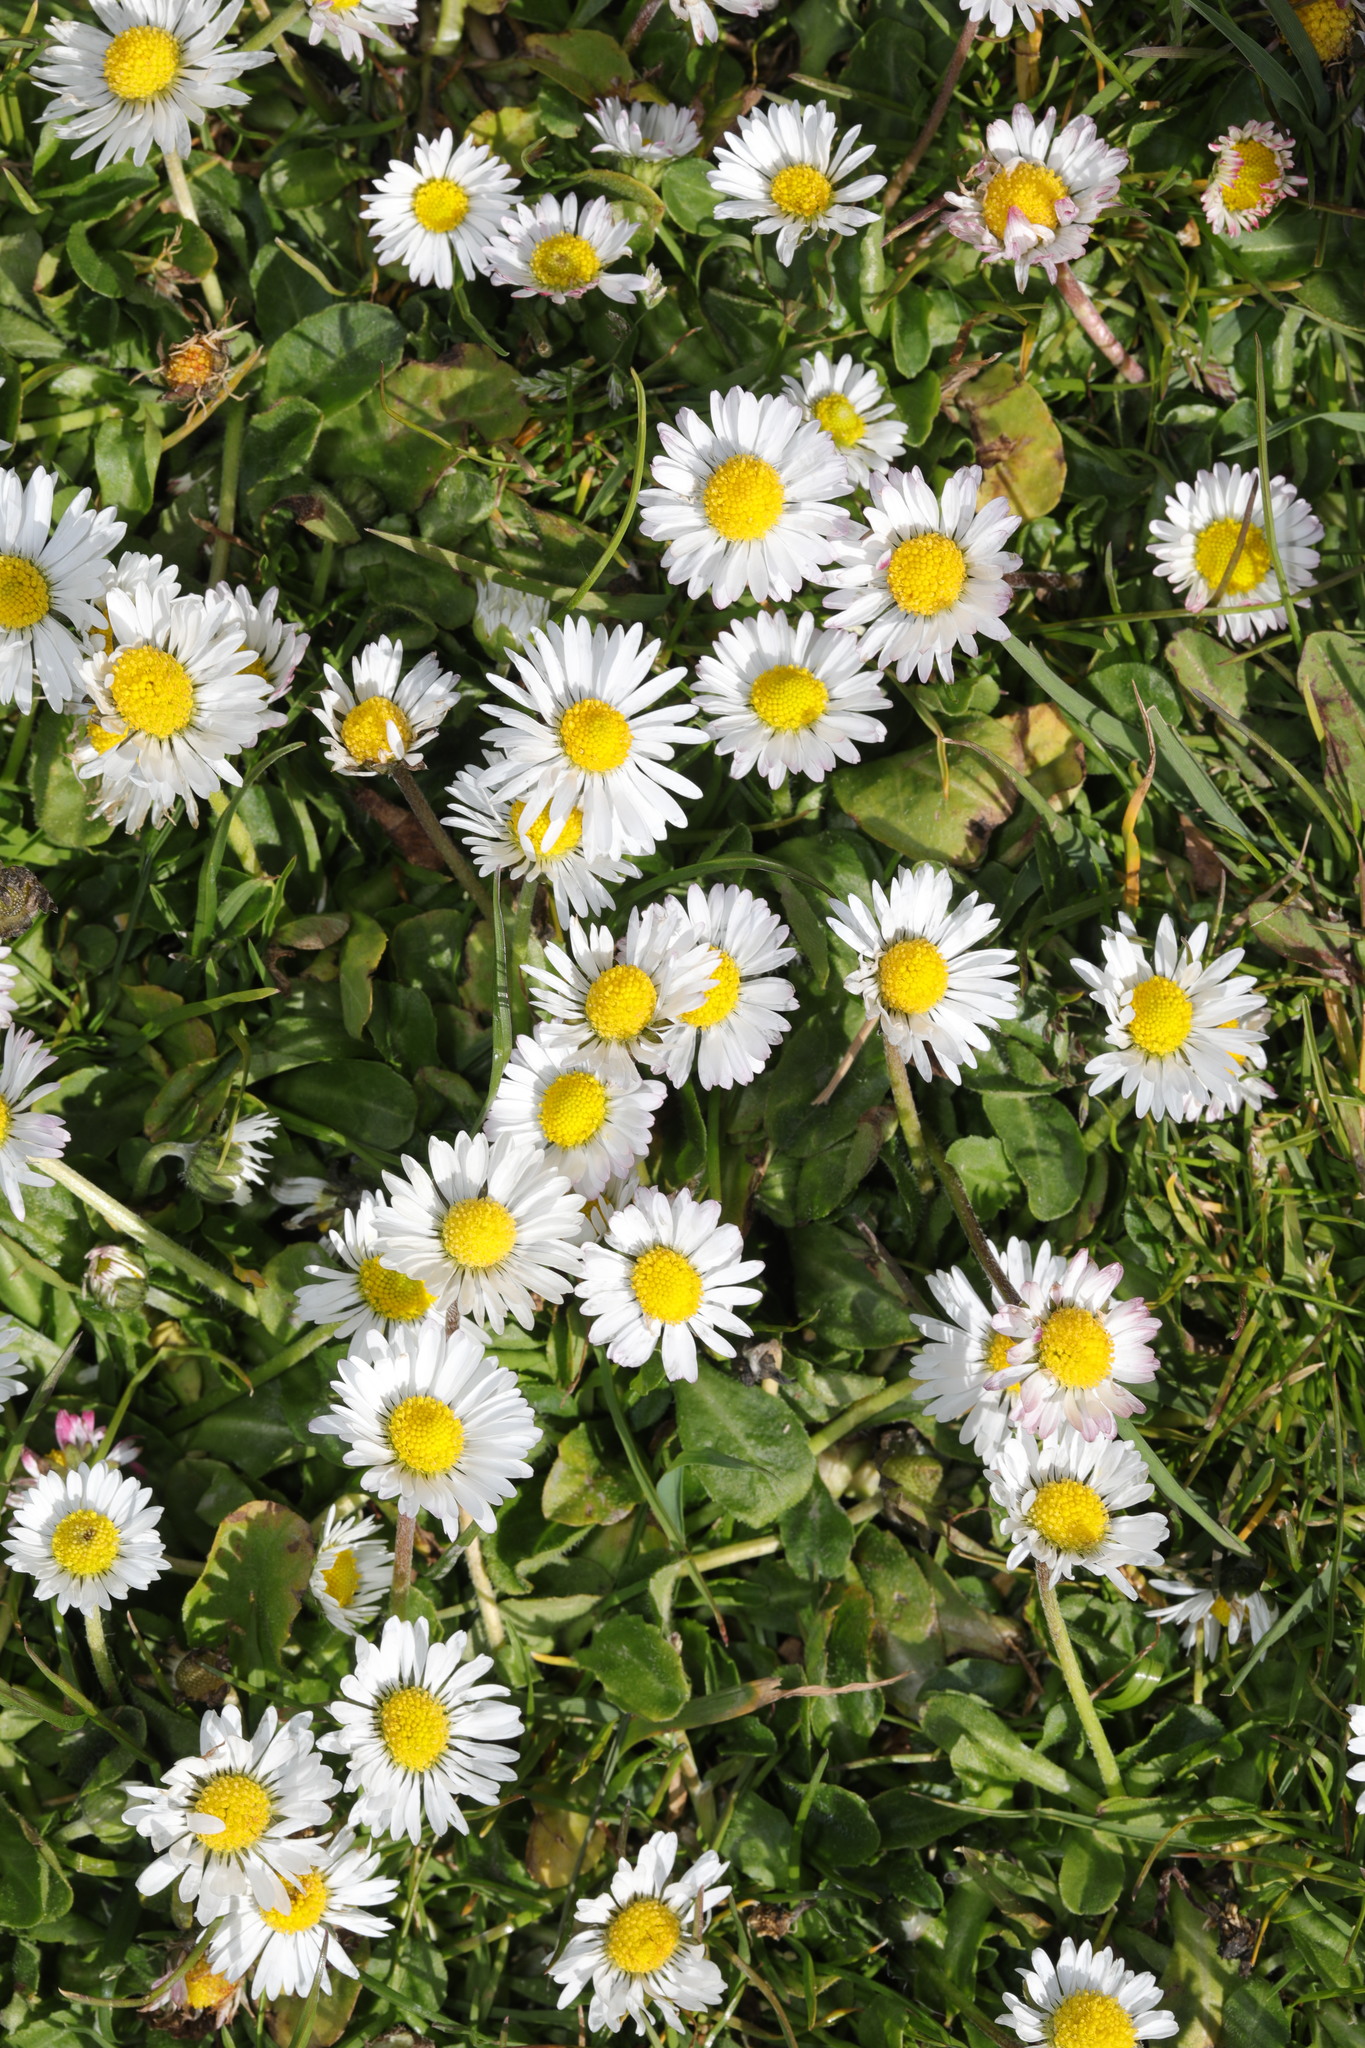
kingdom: Plantae
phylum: Tracheophyta
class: Magnoliopsida
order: Asterales
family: Asteraceae
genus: Bellis
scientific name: Bellis perennis
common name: Lawndaisy
